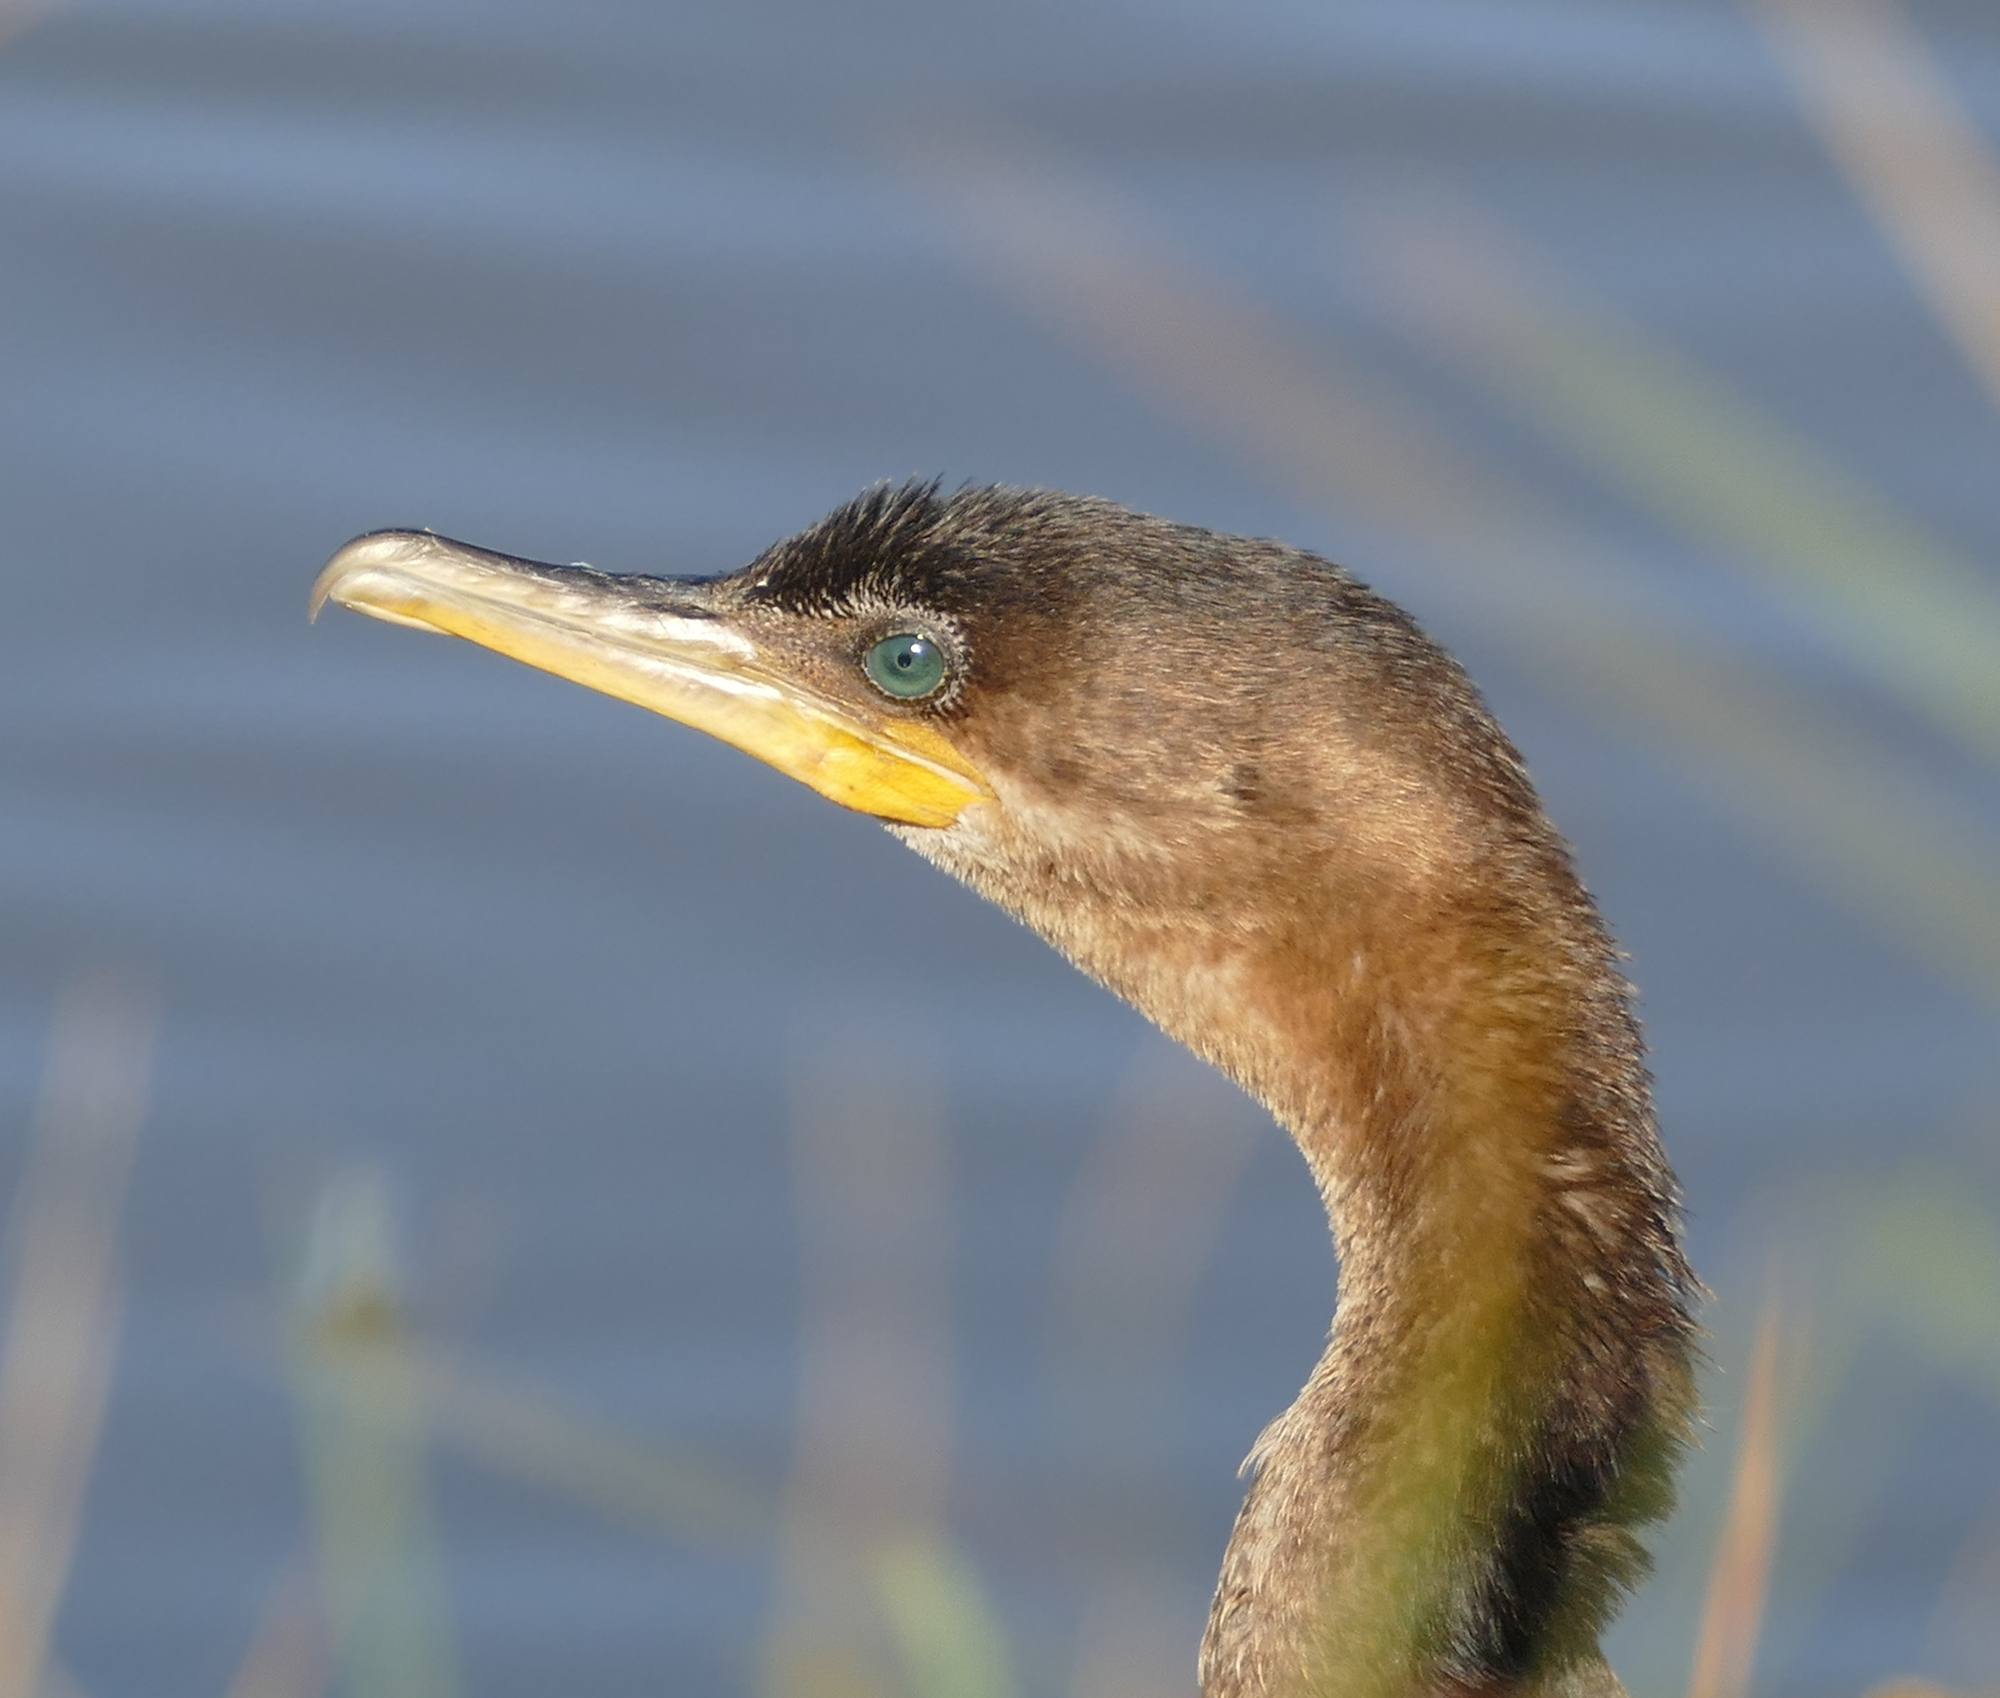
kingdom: Animalia
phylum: Chordata
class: Aves
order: Suliformes
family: Phalacrocoracidae
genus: Phalacrocorax
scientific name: Phalacrocorax brasilianus
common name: Neotropic cormorant
